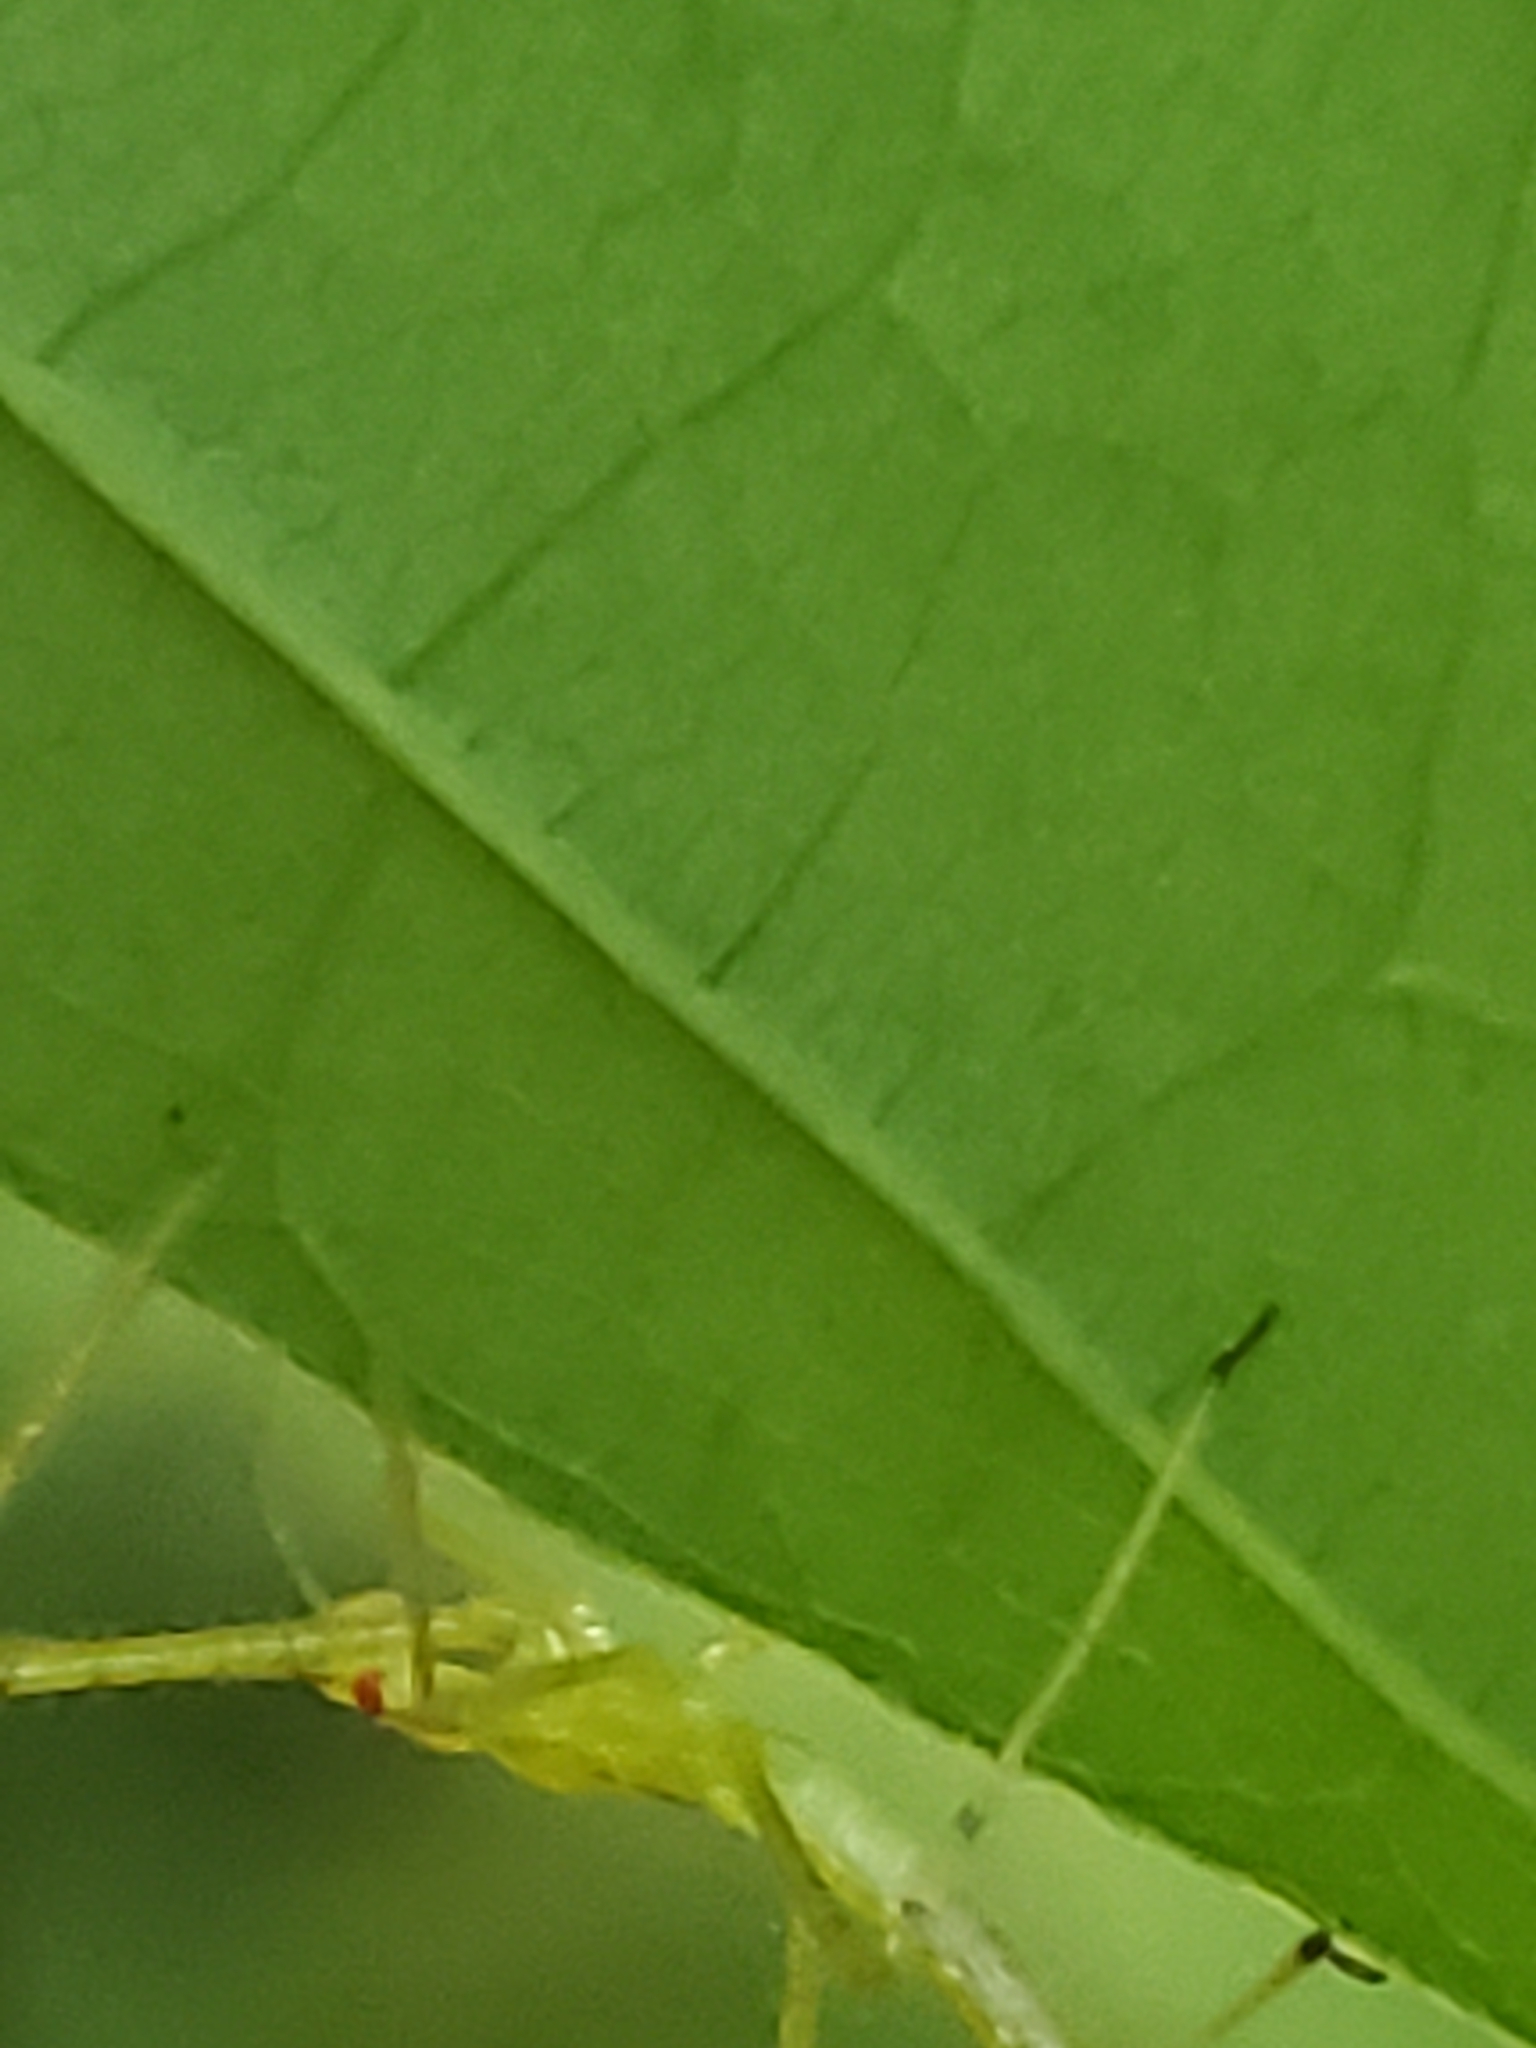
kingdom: Animalia
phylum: Arthropoda
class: Insecta
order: Hemiptera
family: Reduviidae
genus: Zelus
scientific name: Zelus luridus
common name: Pale green assassin bug
